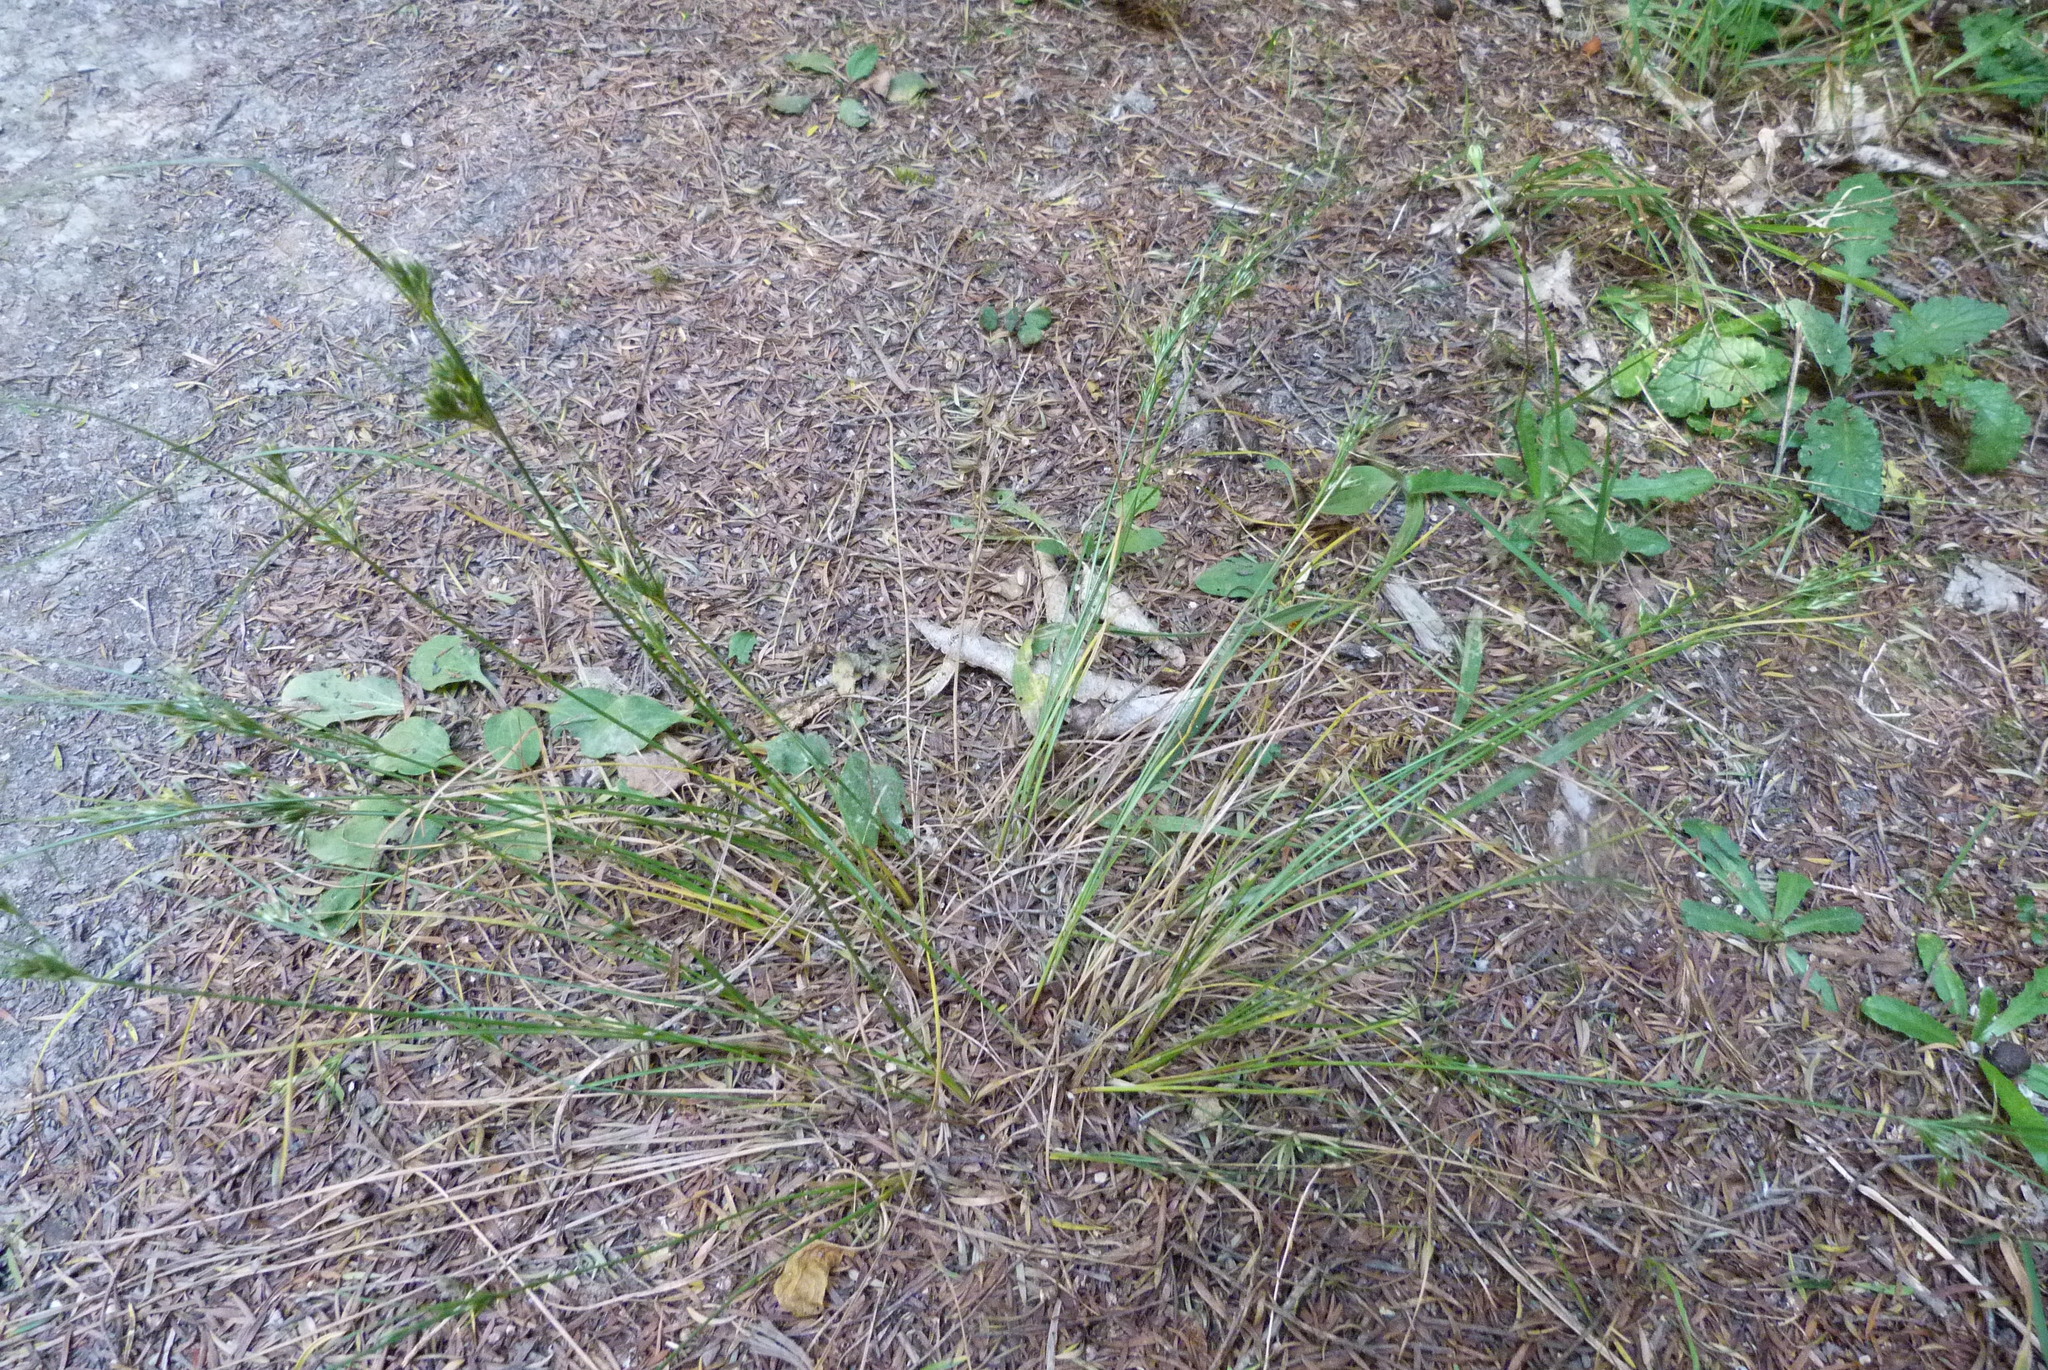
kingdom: Plantae
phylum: Tracheophyta
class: Liliopsida
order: Poales
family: Juncaceae
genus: Juncus
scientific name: Juncus tenuis
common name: Slender rush
